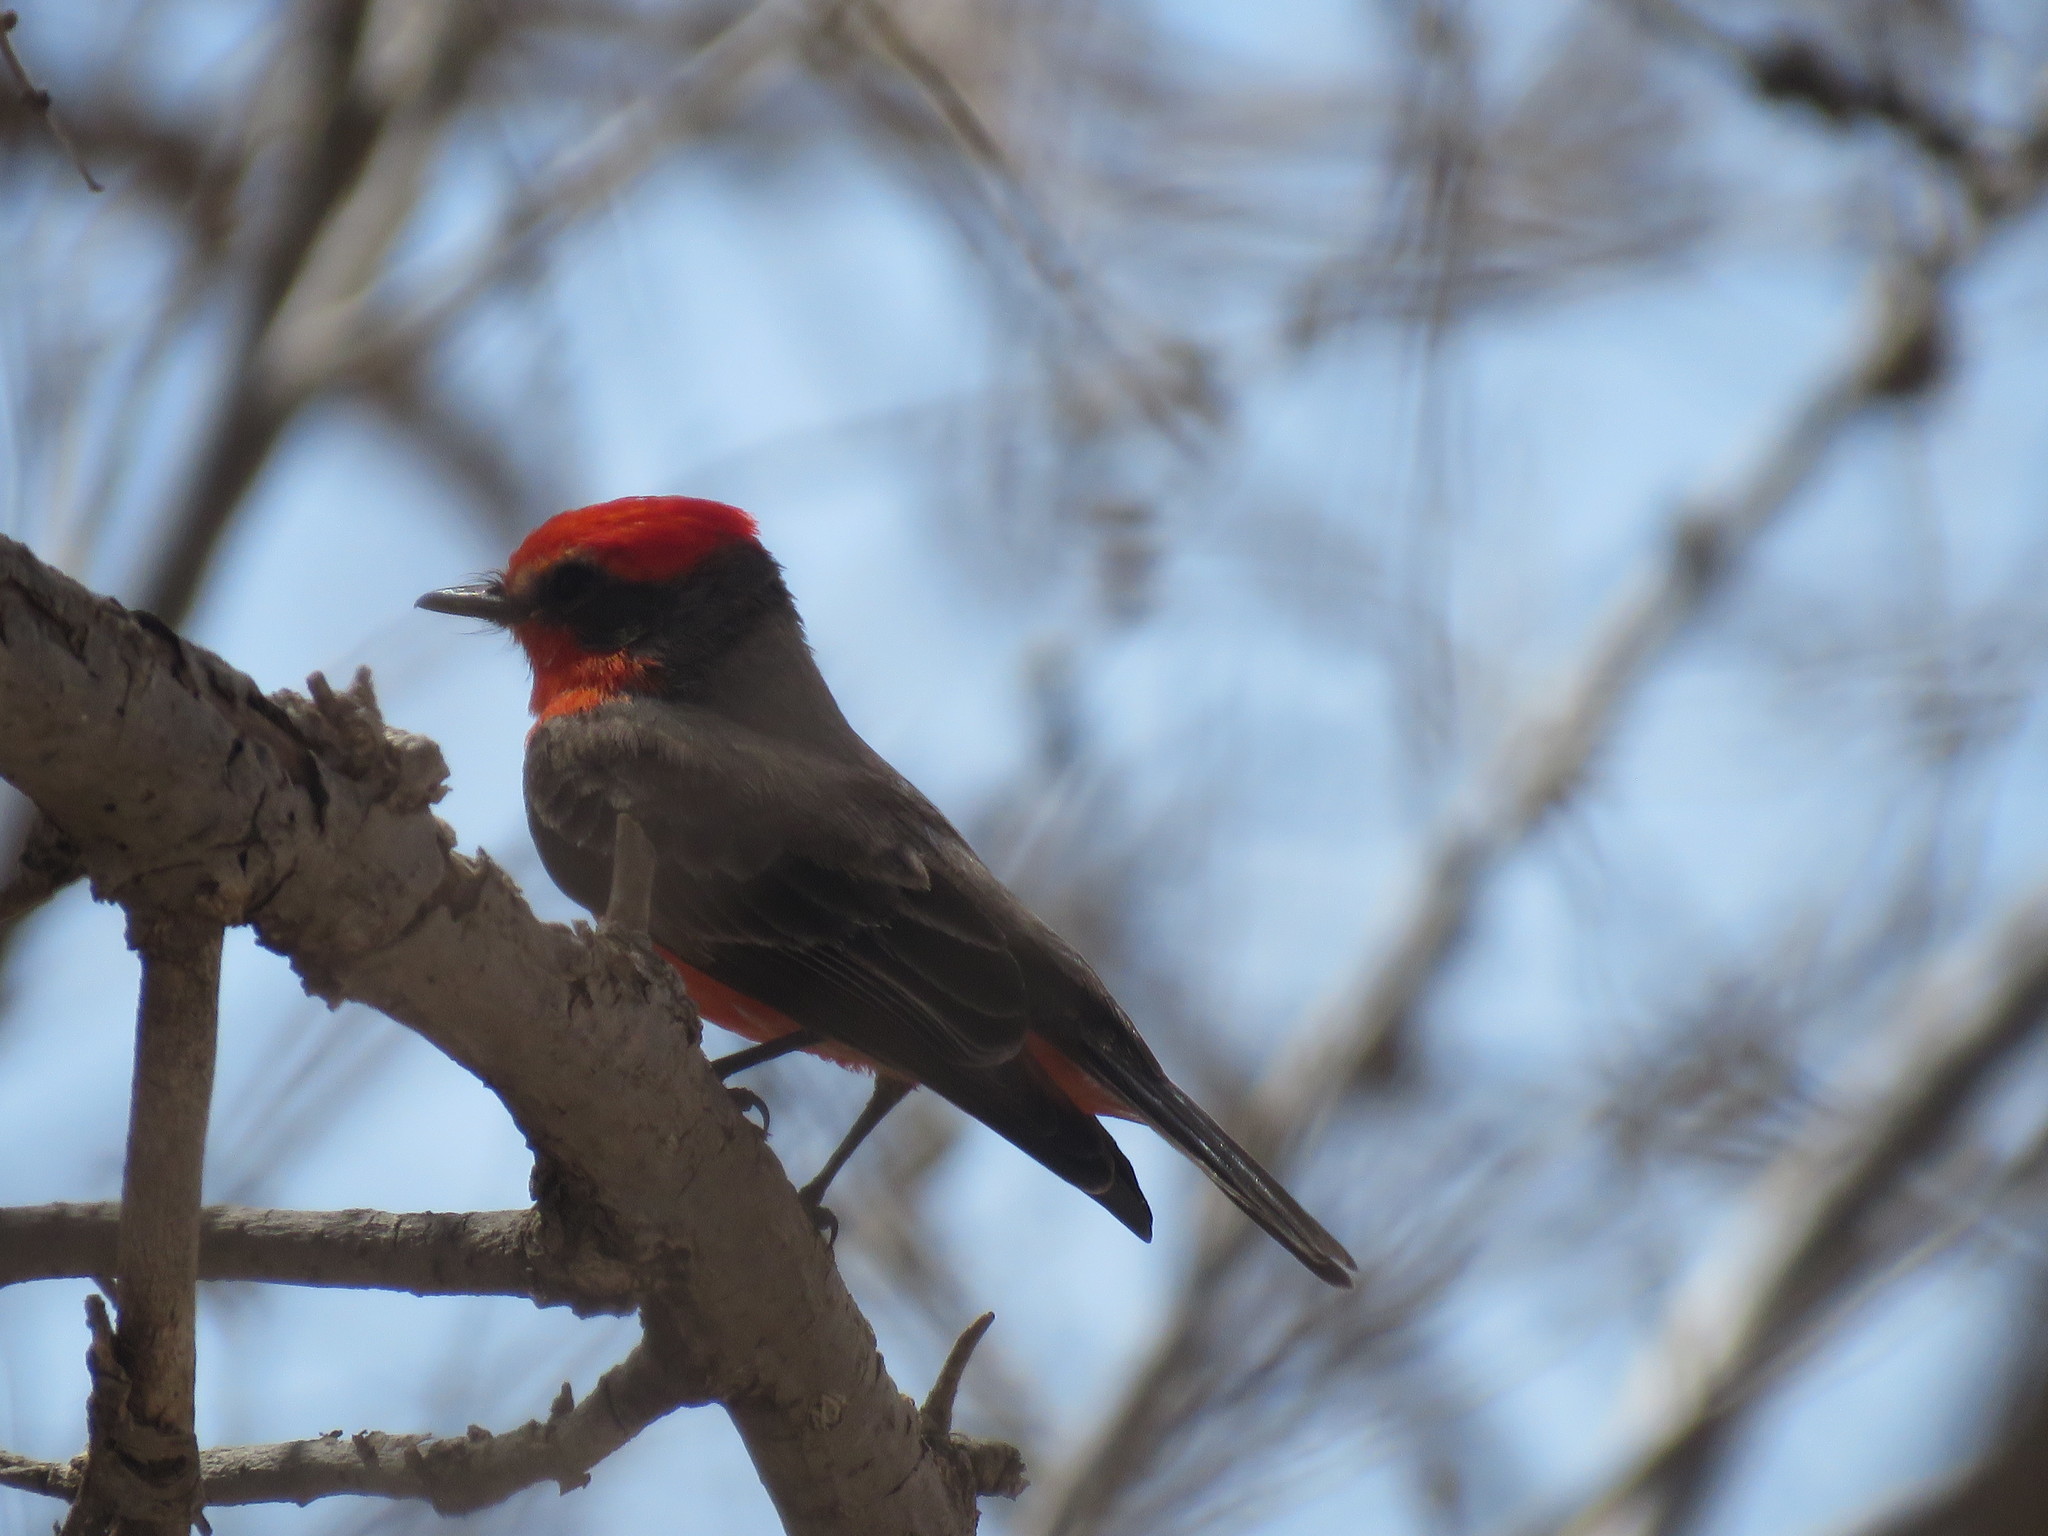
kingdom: Animalia
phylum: Chordata
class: Aves
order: Passeriformes
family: Tyrannidae
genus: Pyrocephalus
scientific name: Pyrocephalus rubinus
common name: Vermilion flycatcher
